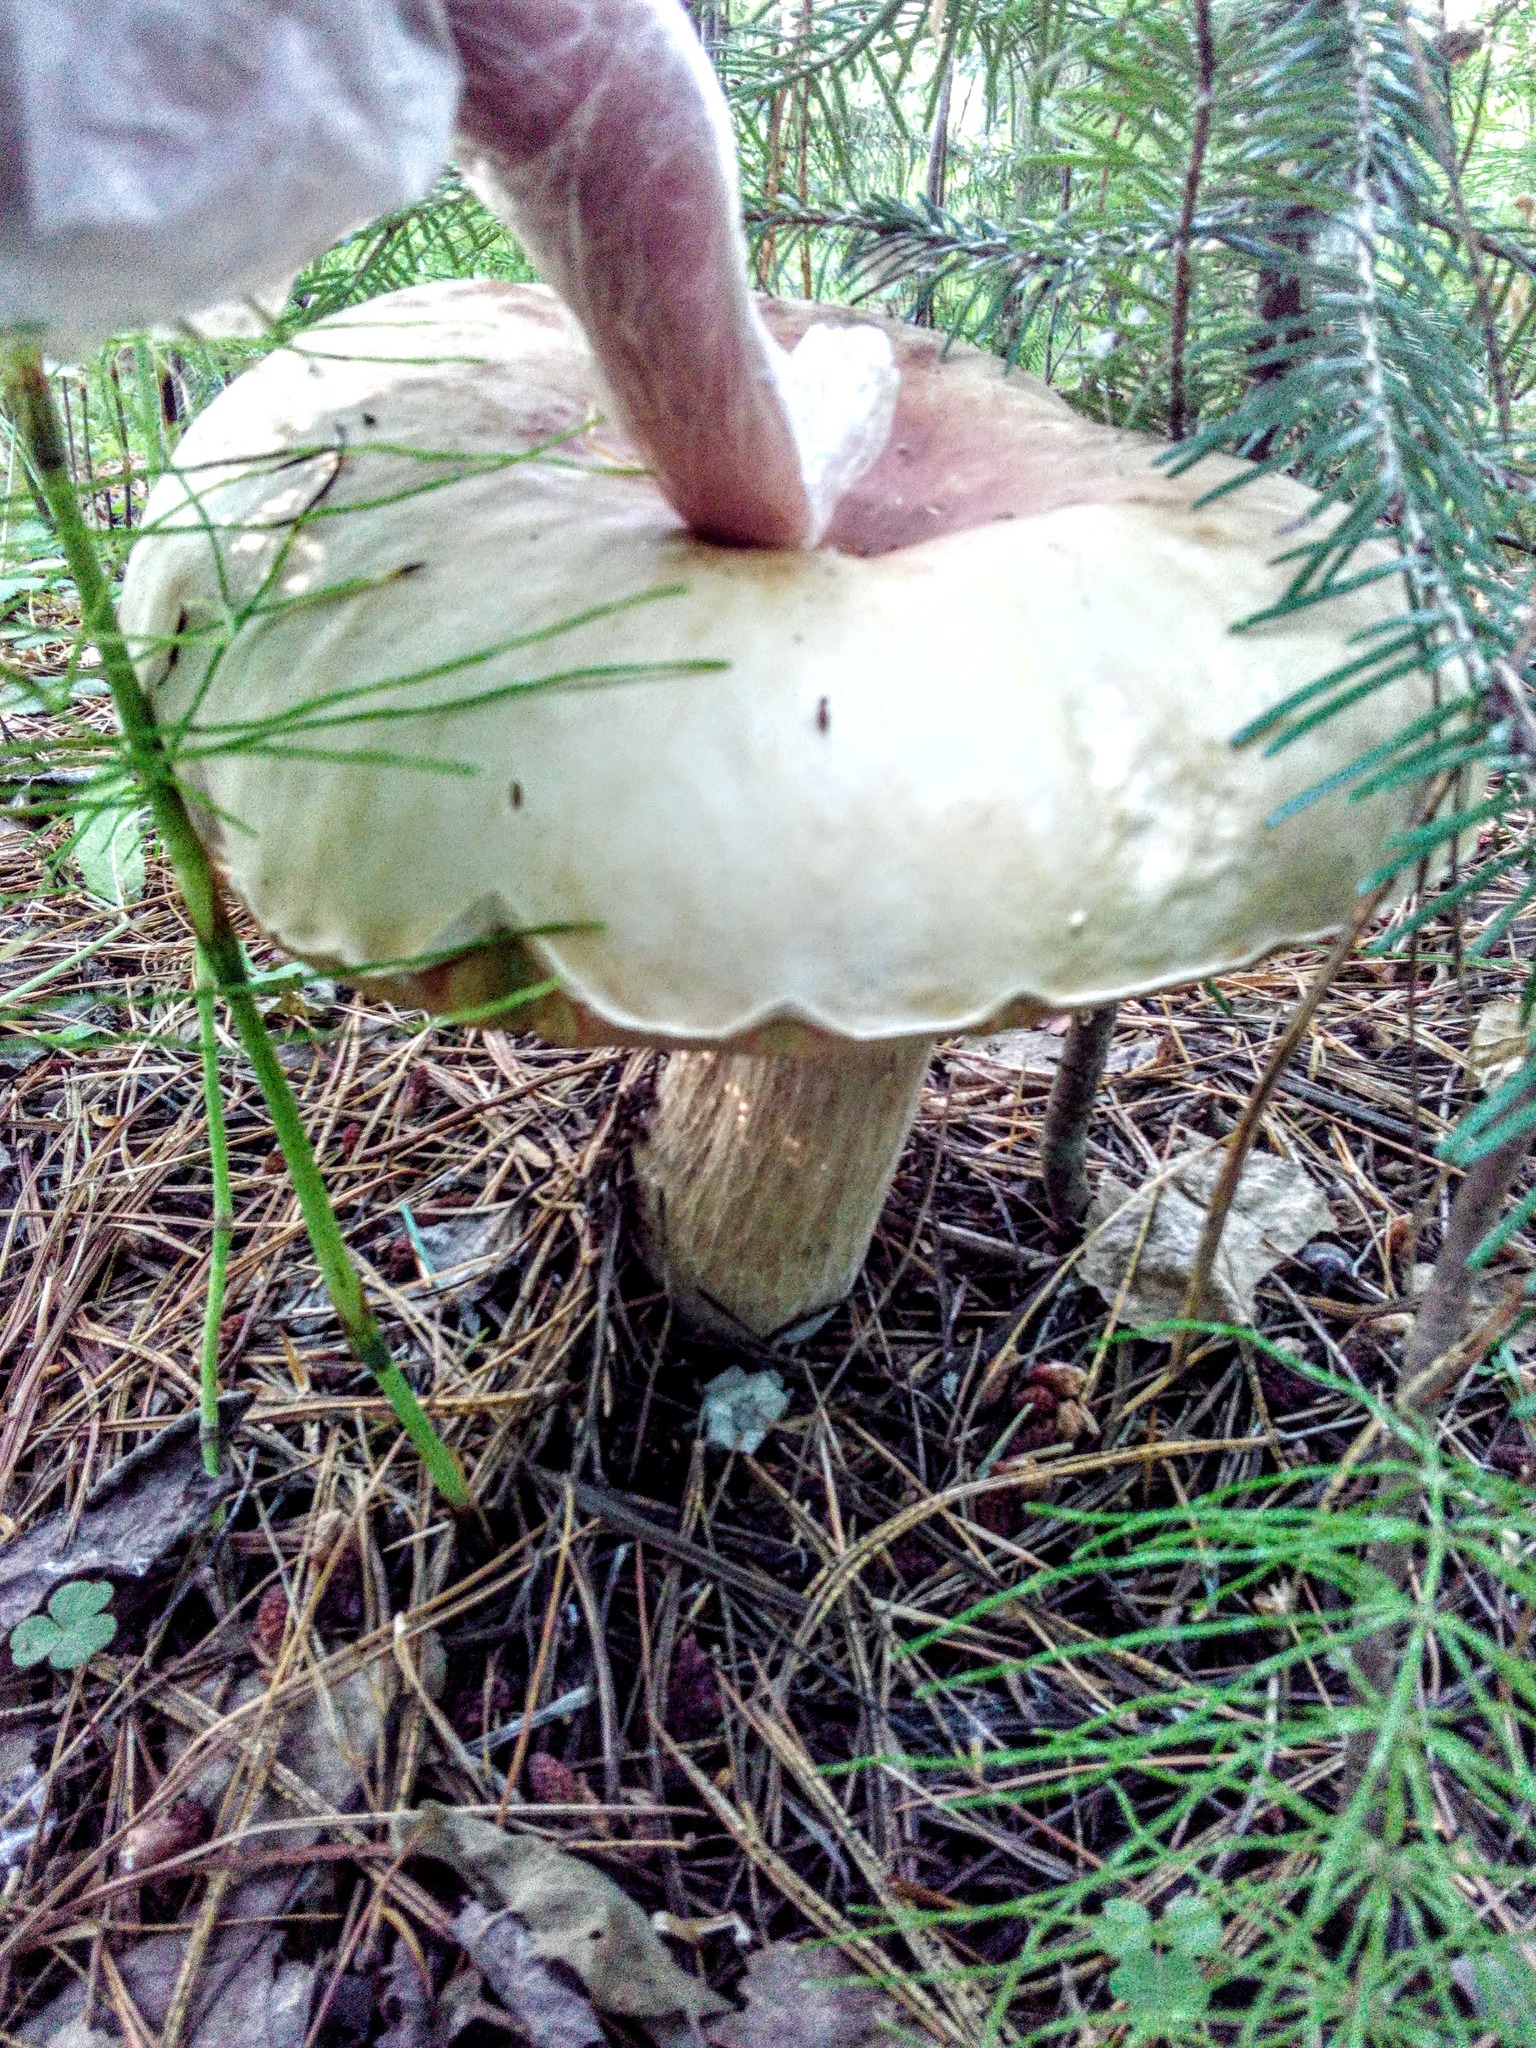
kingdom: Fungi
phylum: Basidiomycota
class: Agaricomycetes
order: Boletales
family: Boletaceae
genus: Boletus
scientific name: Boletus edulis
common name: Cep
